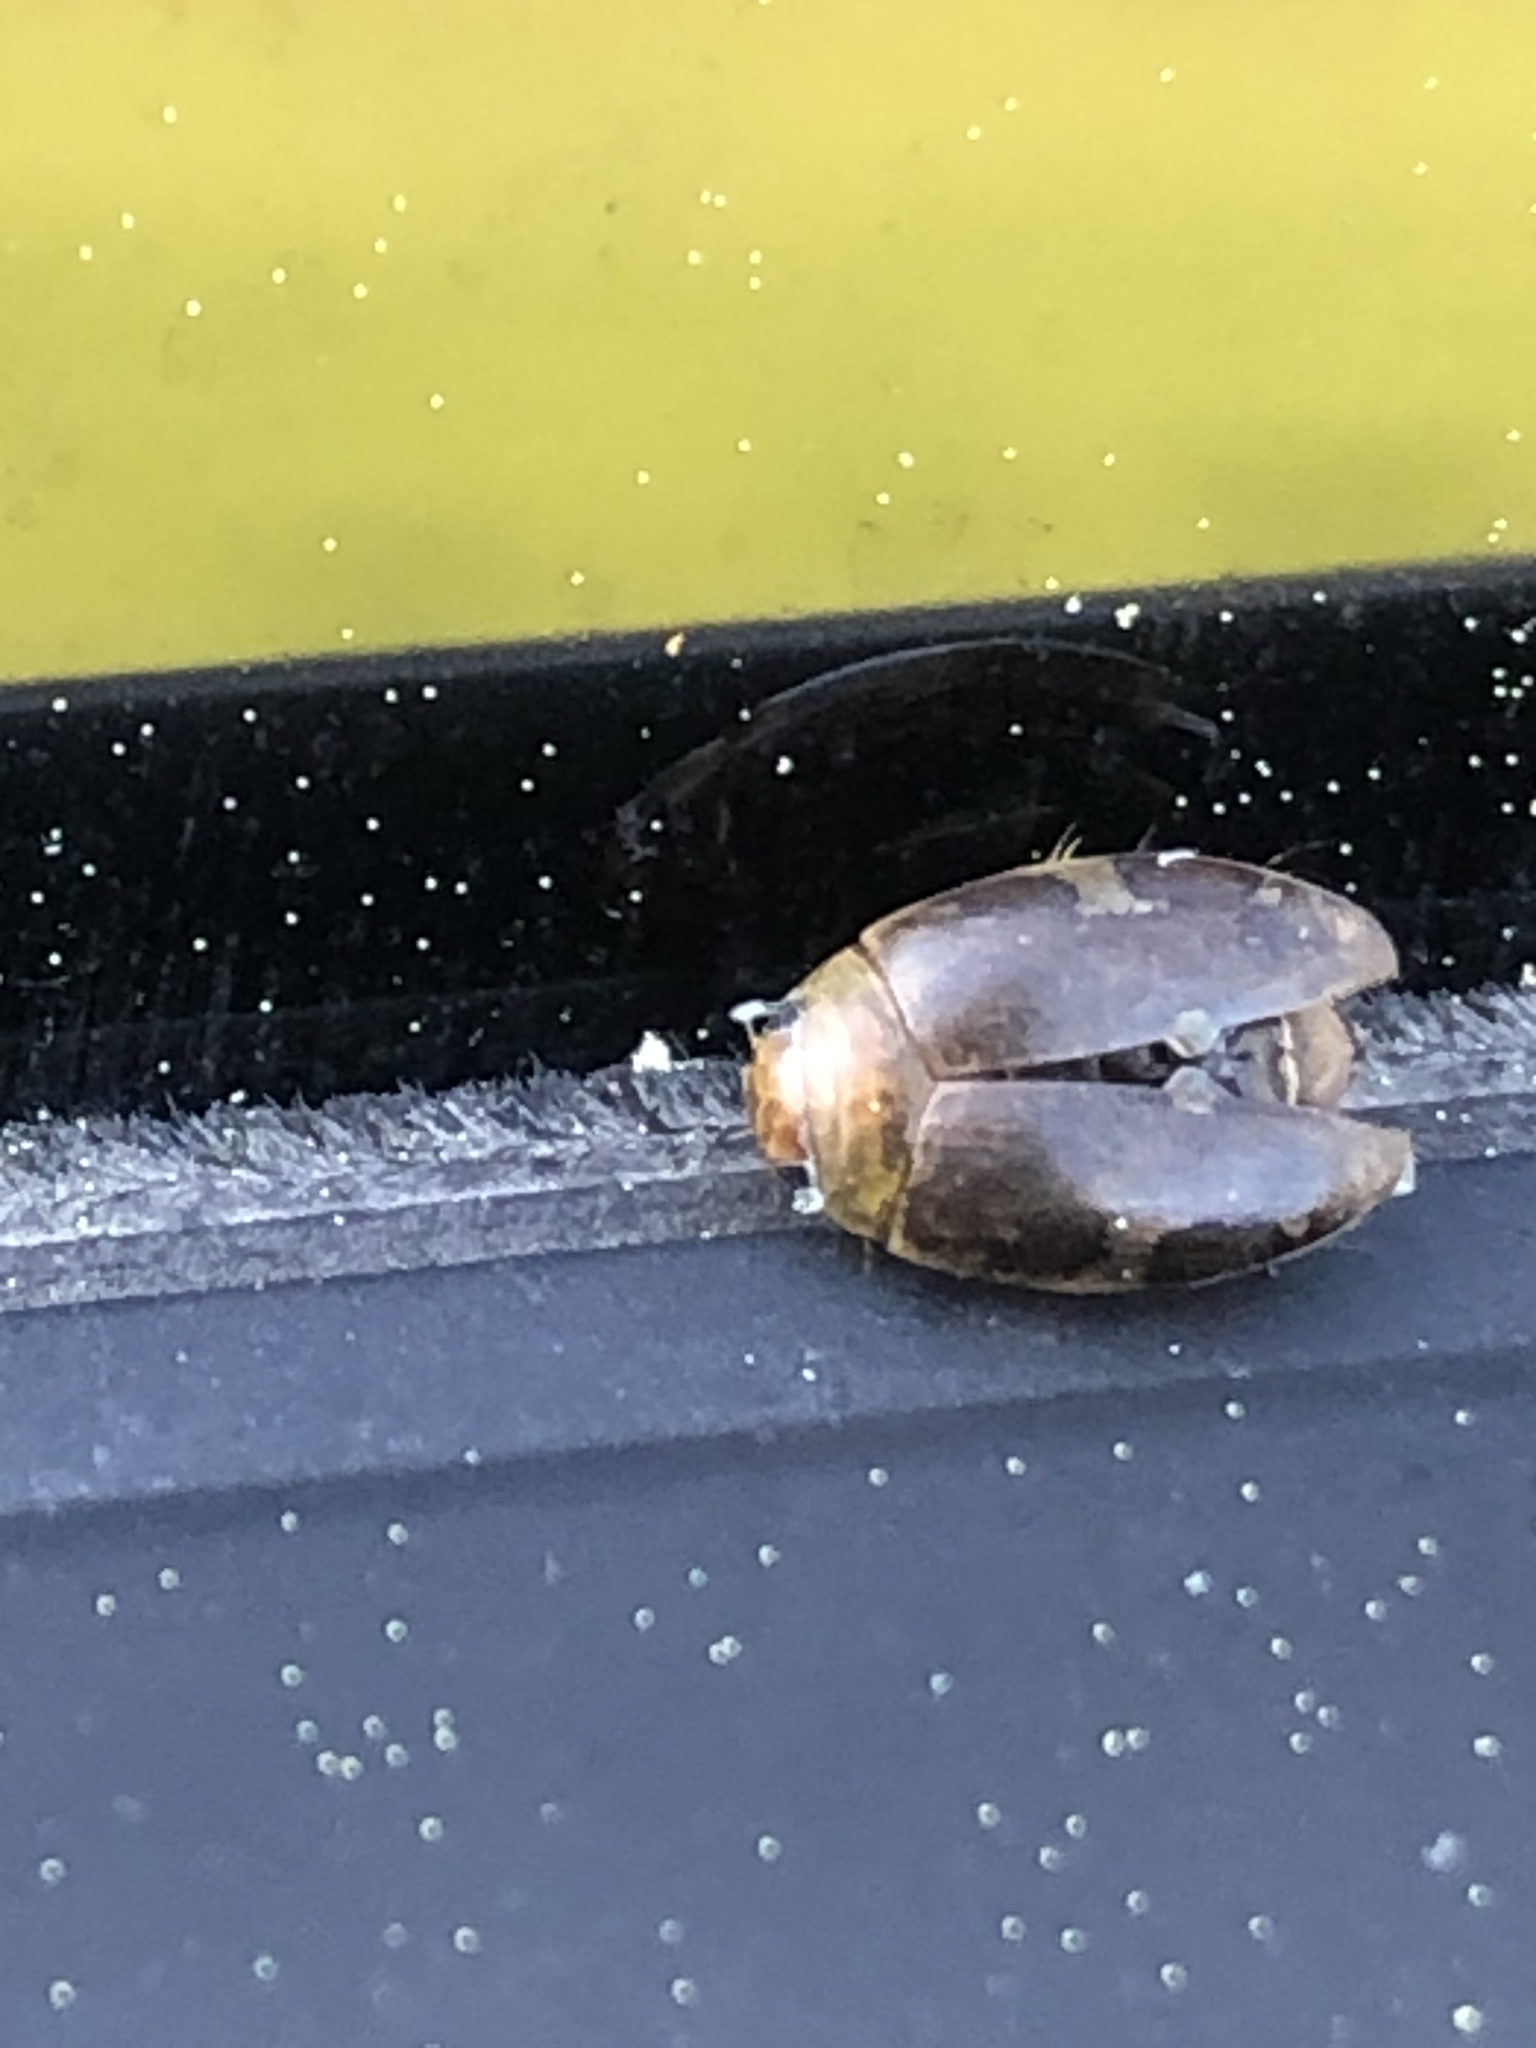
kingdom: Animalia
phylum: Arthropoda
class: Insecta
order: Coleoptera
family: Dytiscidae
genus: Laccophilus
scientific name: Laccophilus maculosus
